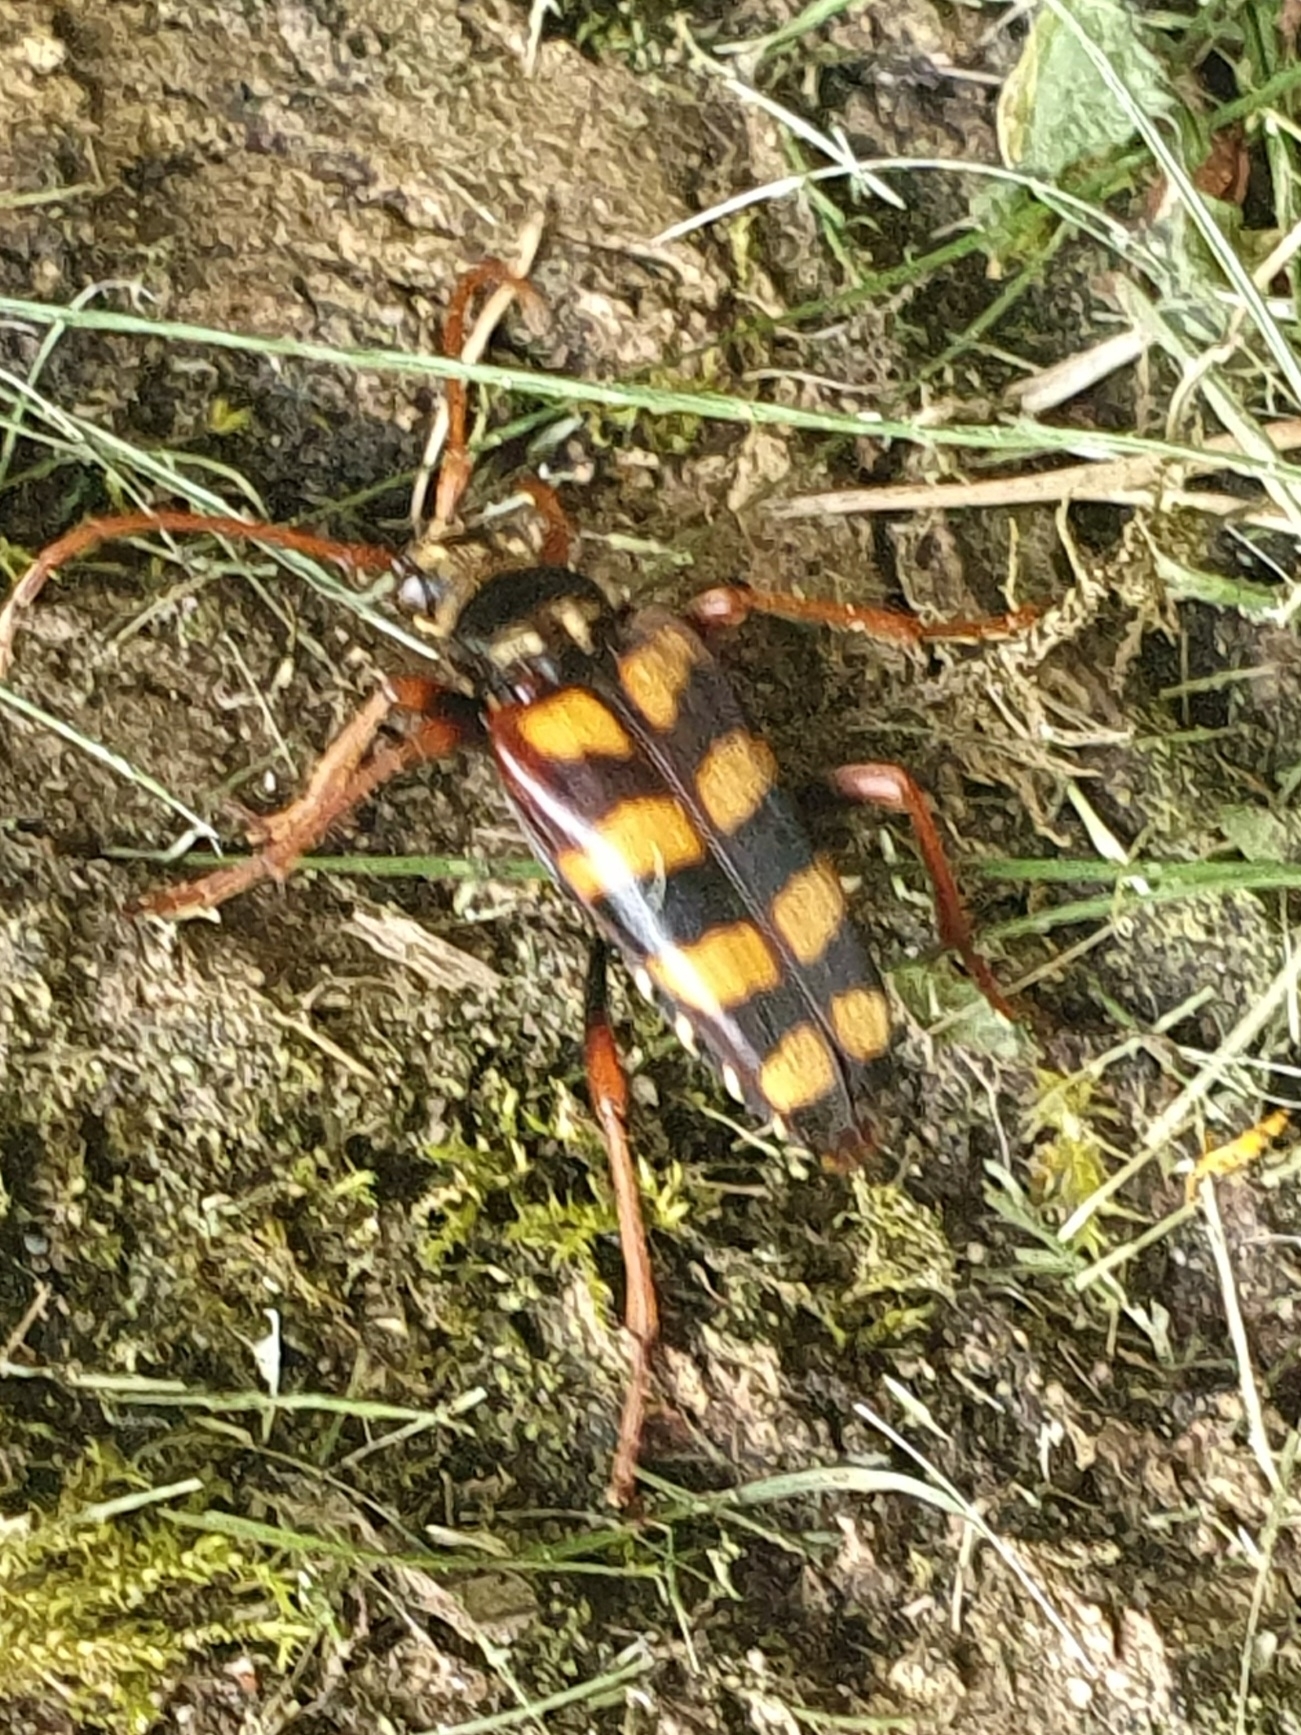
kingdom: Animalia
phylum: Arthropoda
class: Insecta
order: Coleoptera
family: Cerambycidae
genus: Leptura
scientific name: Leptura aurulenta
